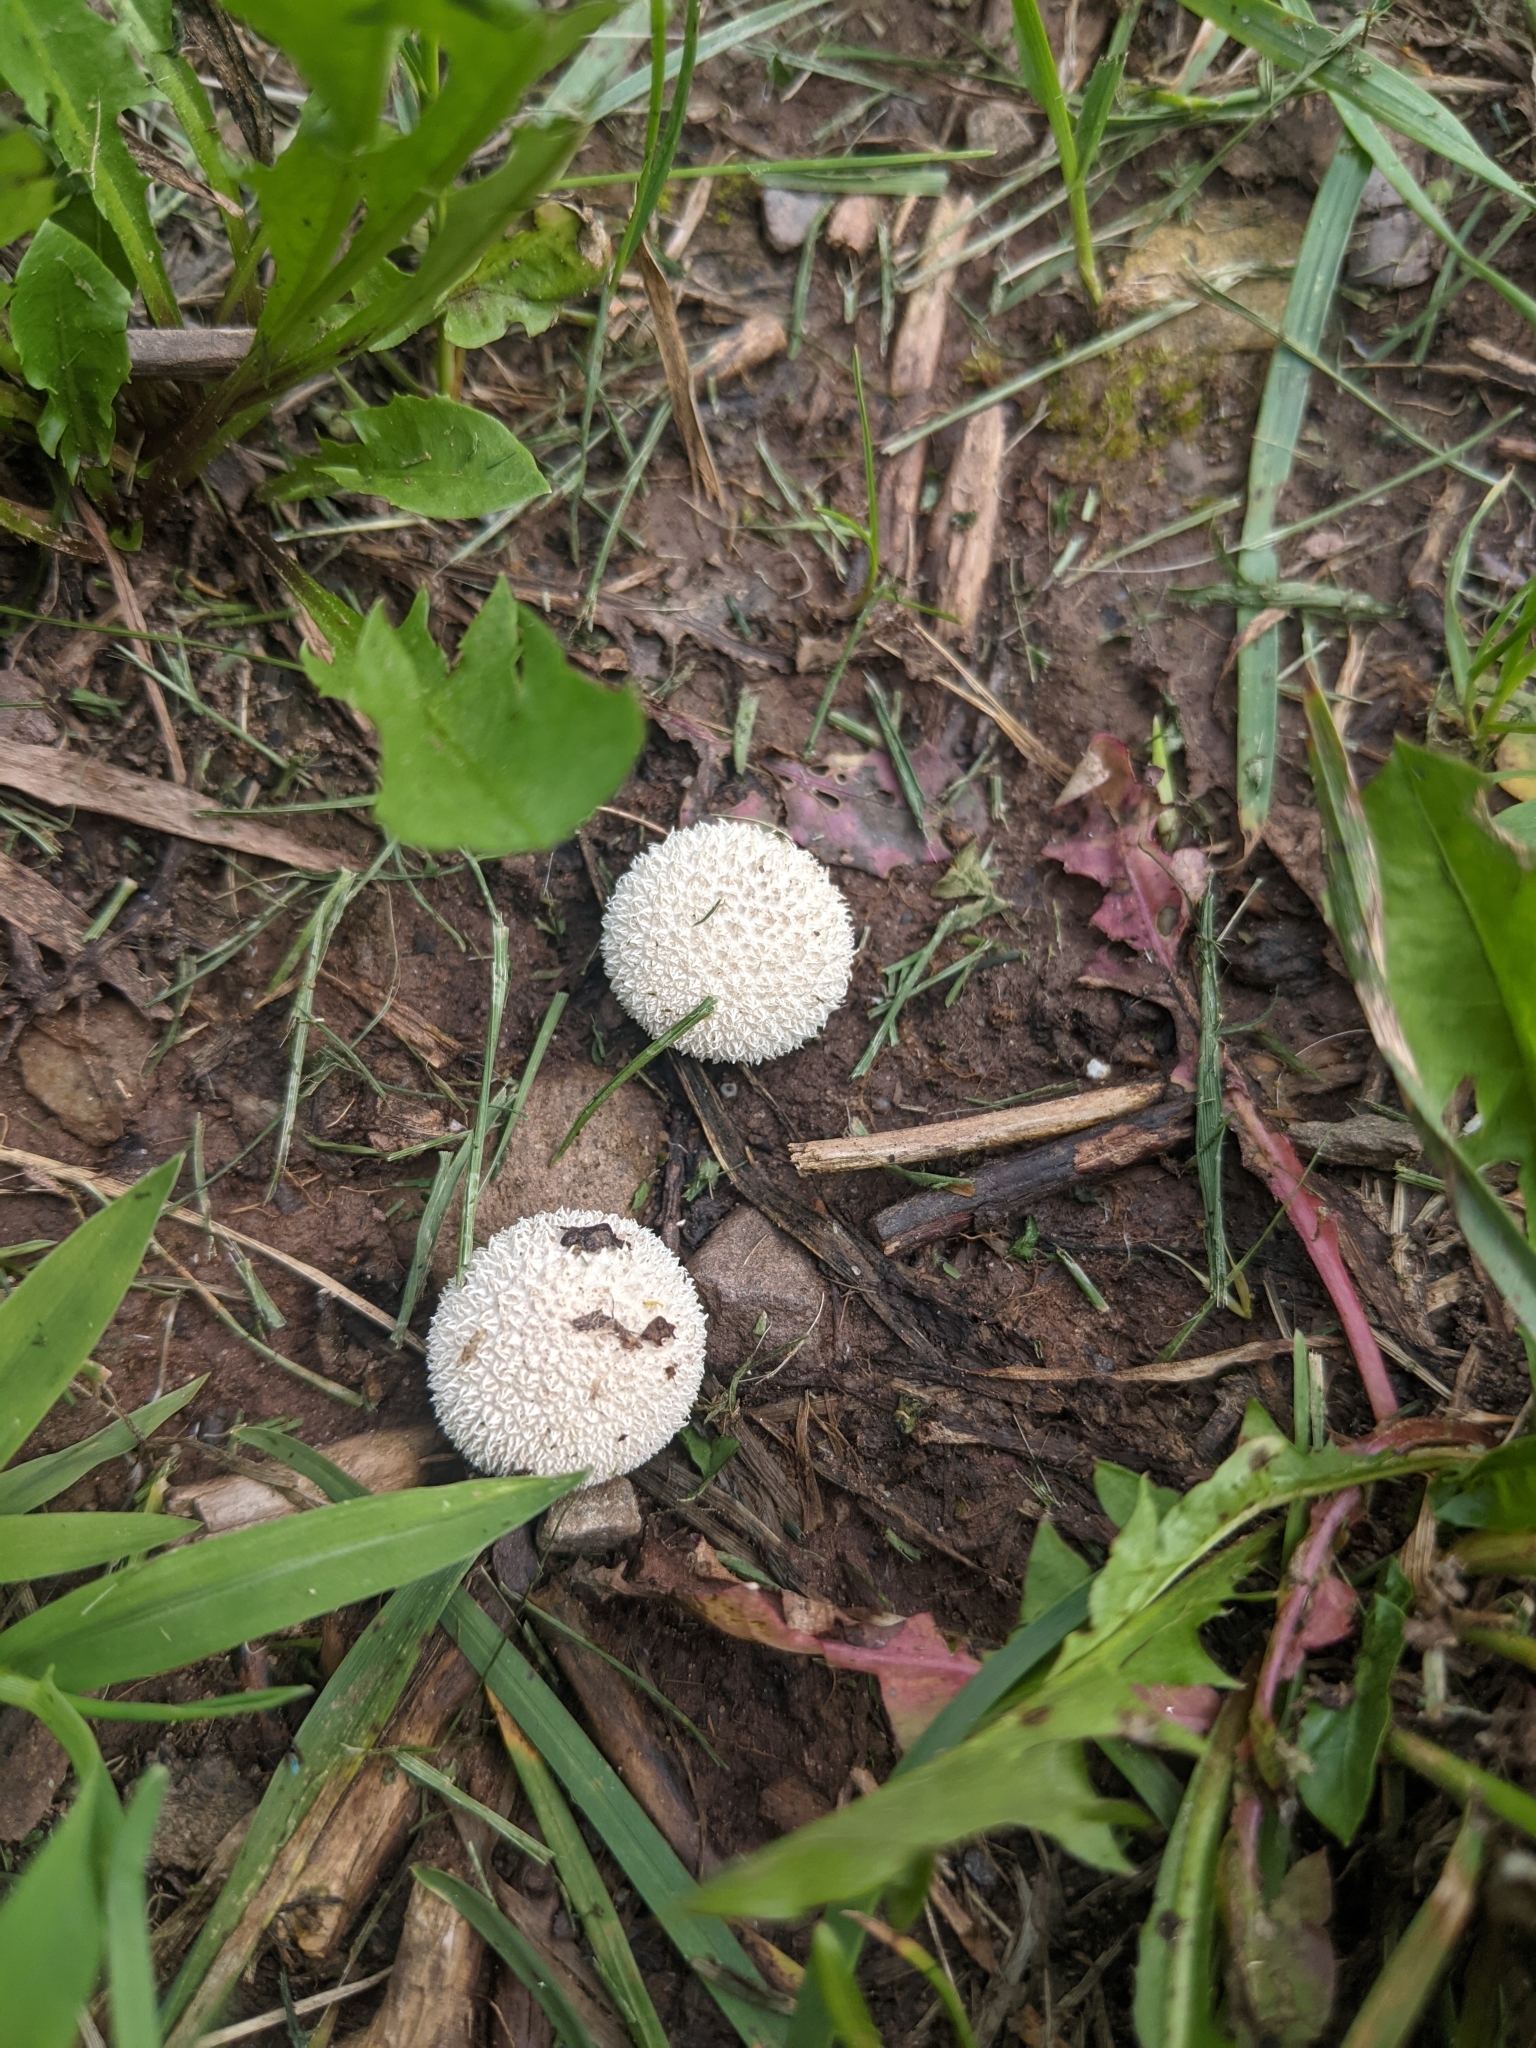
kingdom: Fungi
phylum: Basidiomycota
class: Agaricomycetes
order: Agaricales
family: Agaricaceae
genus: Lycoperdon
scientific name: Lycoperdon marginatum
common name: Peeling puffball
